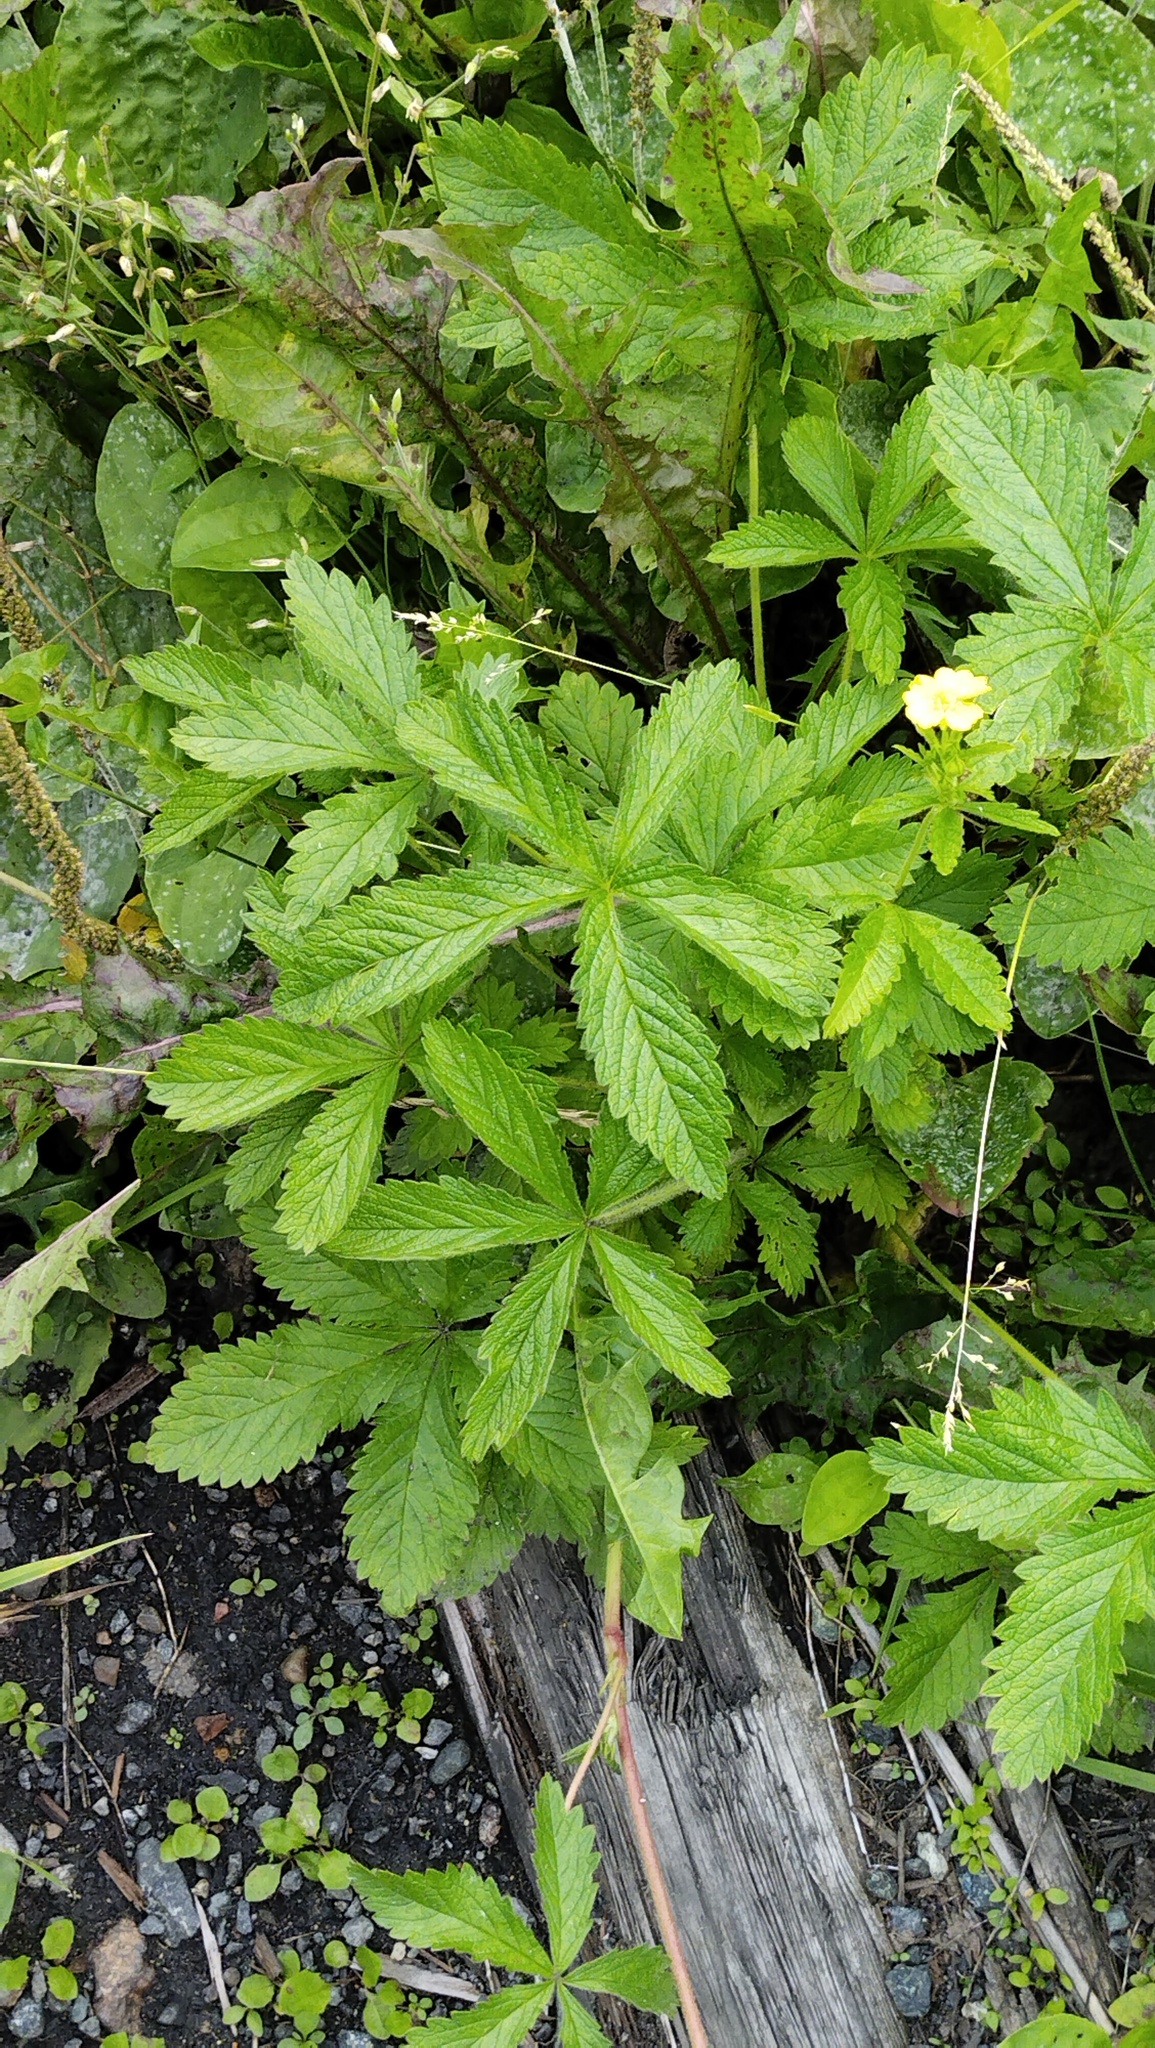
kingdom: Plantae
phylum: Tracheophyta
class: Magnoliopsida
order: Rosales
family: Rosaceae
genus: Potentilla
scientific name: Potentilla chrysantha
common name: Thuringian cinquefoil
